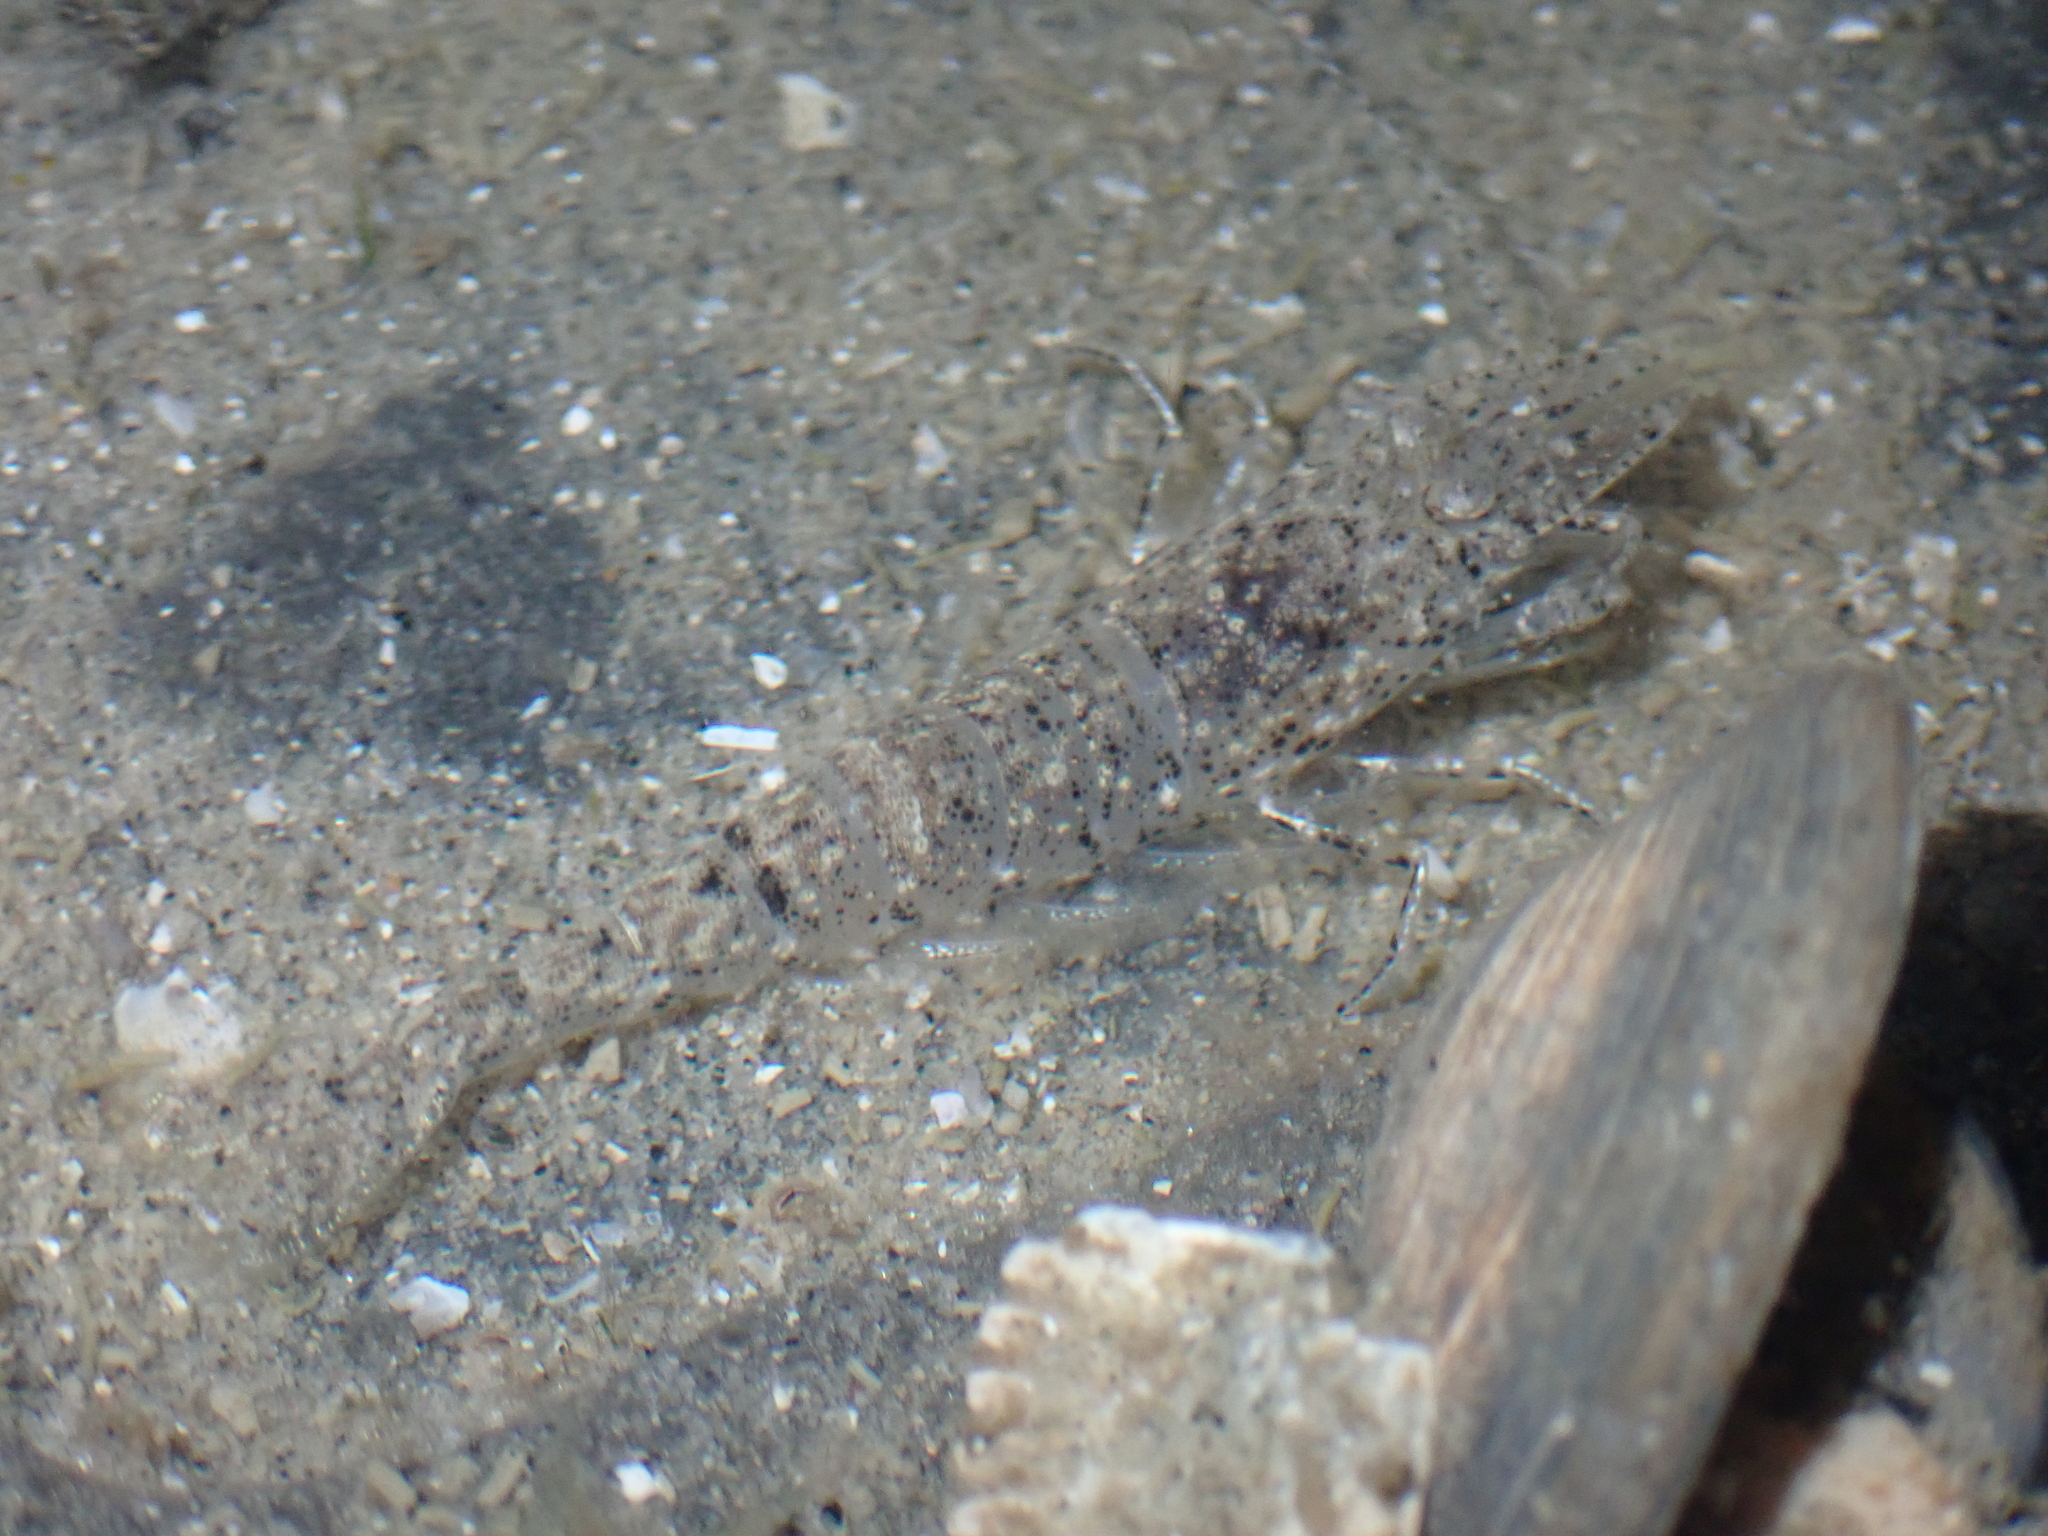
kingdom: Animalia
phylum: Arthropoda
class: Malacostraca
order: Decapoda
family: Crangonidae
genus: Crangon
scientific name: Crangon crangon
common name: Brown shrimp
